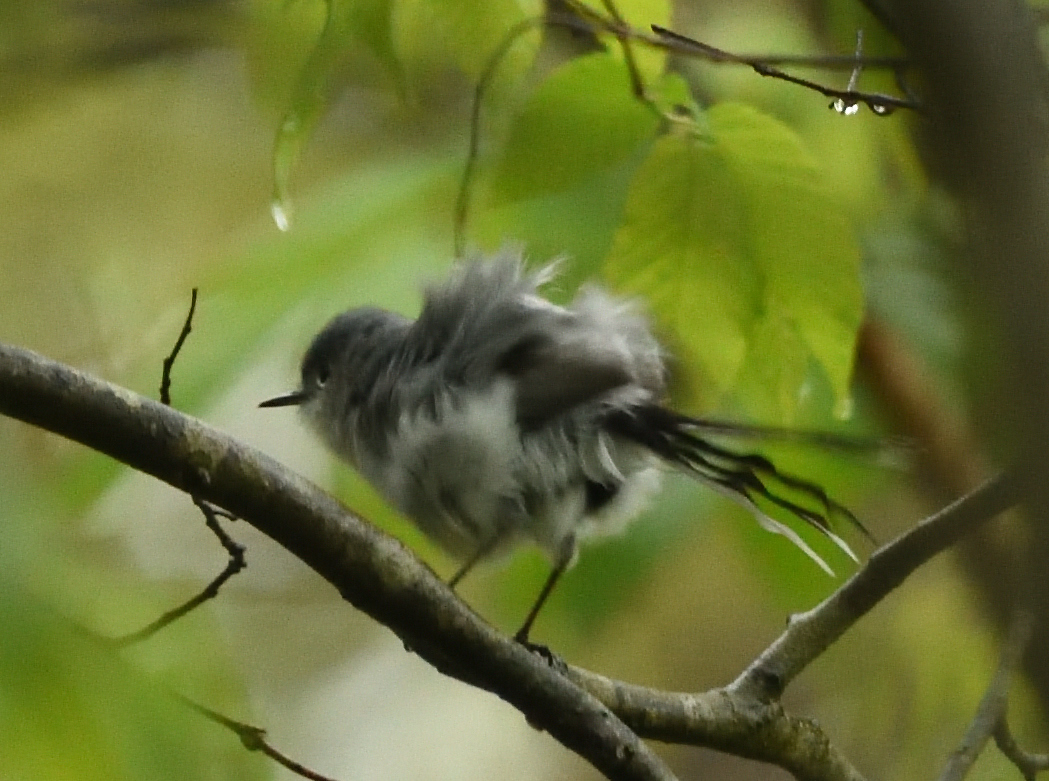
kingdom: Animalia
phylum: Chordata
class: Aves
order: Passeriformes
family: Polioptilidae
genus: Polioptila
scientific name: Polioptila caerulea
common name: Blue-gray gnatcatcher
